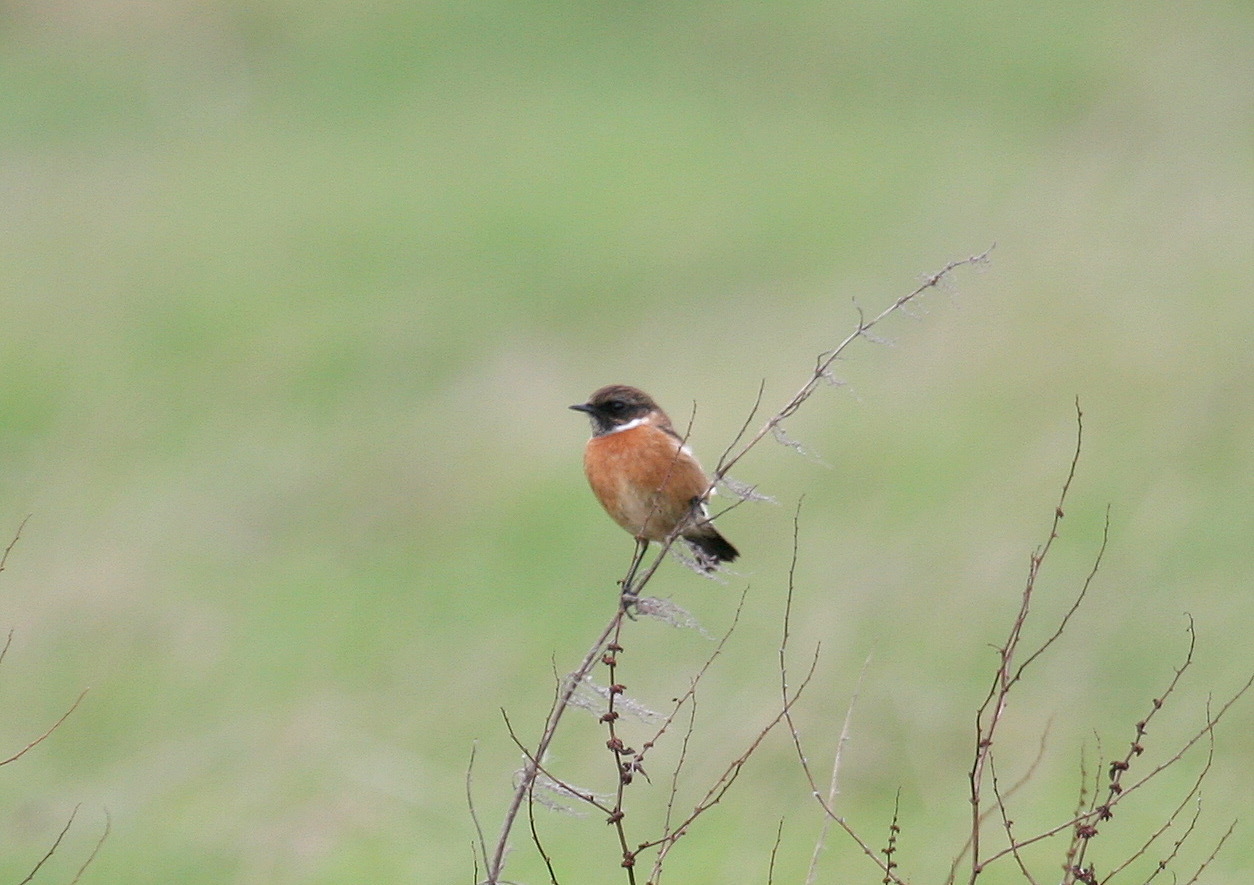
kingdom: Animalia
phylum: Chordata
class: Aves
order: Passeriformes
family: Muscicapidae
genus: Saxicola
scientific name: Saxicola rubicola
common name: European stonechat
